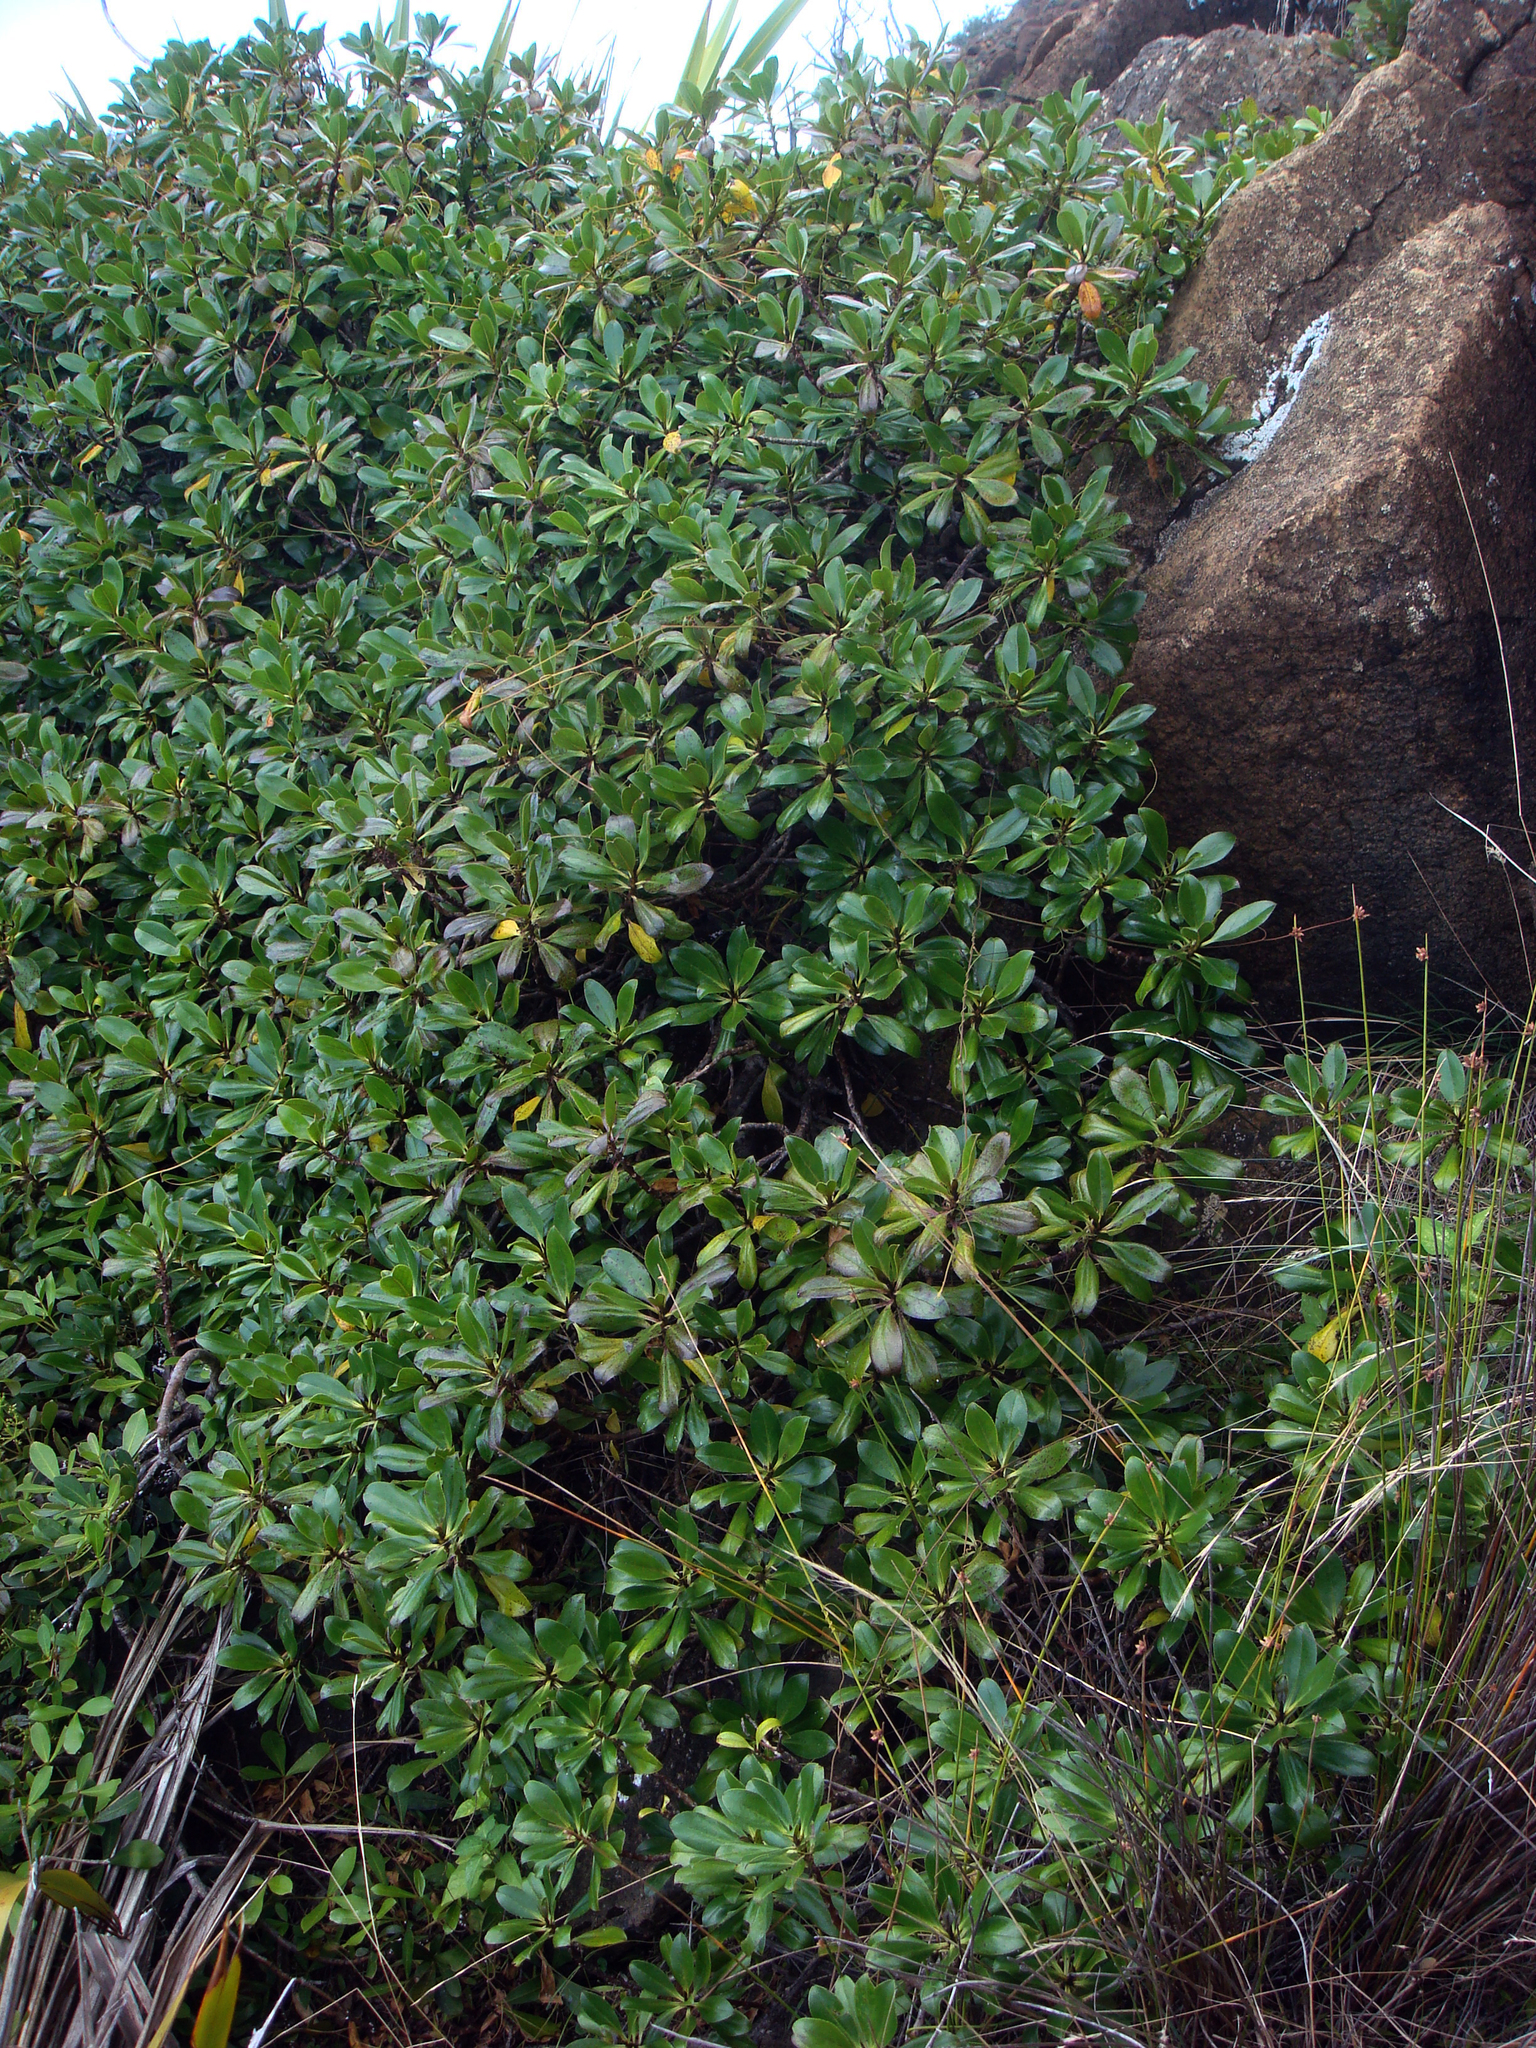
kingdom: Plantae
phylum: Tracheophyta
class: Magnoliopsida
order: Lamiales
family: Scrophulariaceae
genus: Myoporum
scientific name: Myoporum laetum
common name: Ngaio tree
